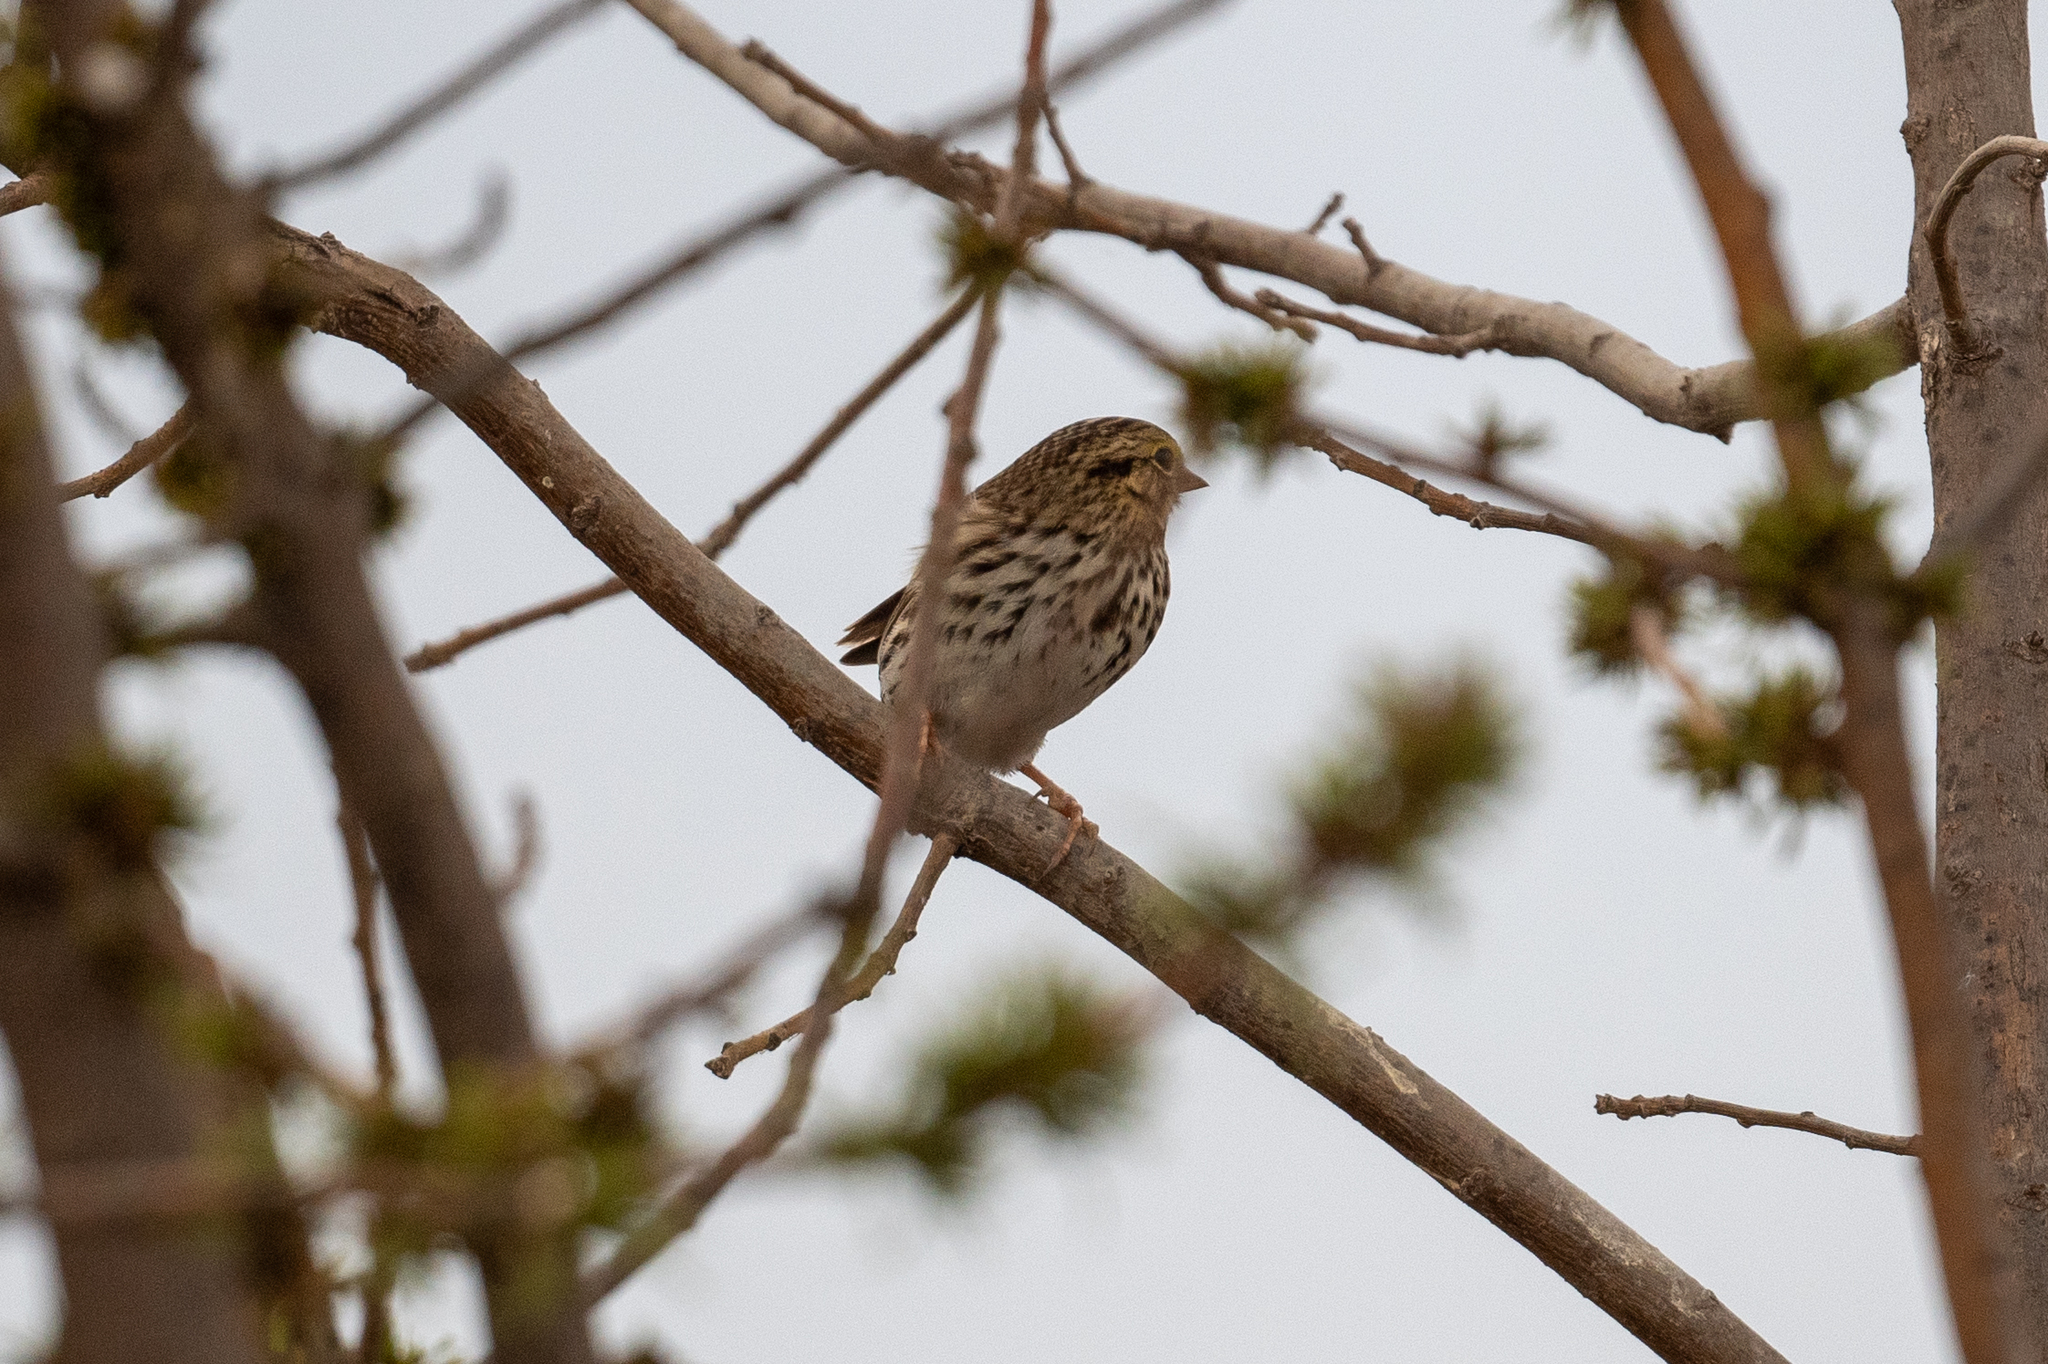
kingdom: Animalia
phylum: Chordata
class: Aves
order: Passeriformes
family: Passerellidae
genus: Passerculus
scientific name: Passerculus sandwichensis
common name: Savannah sparrow
